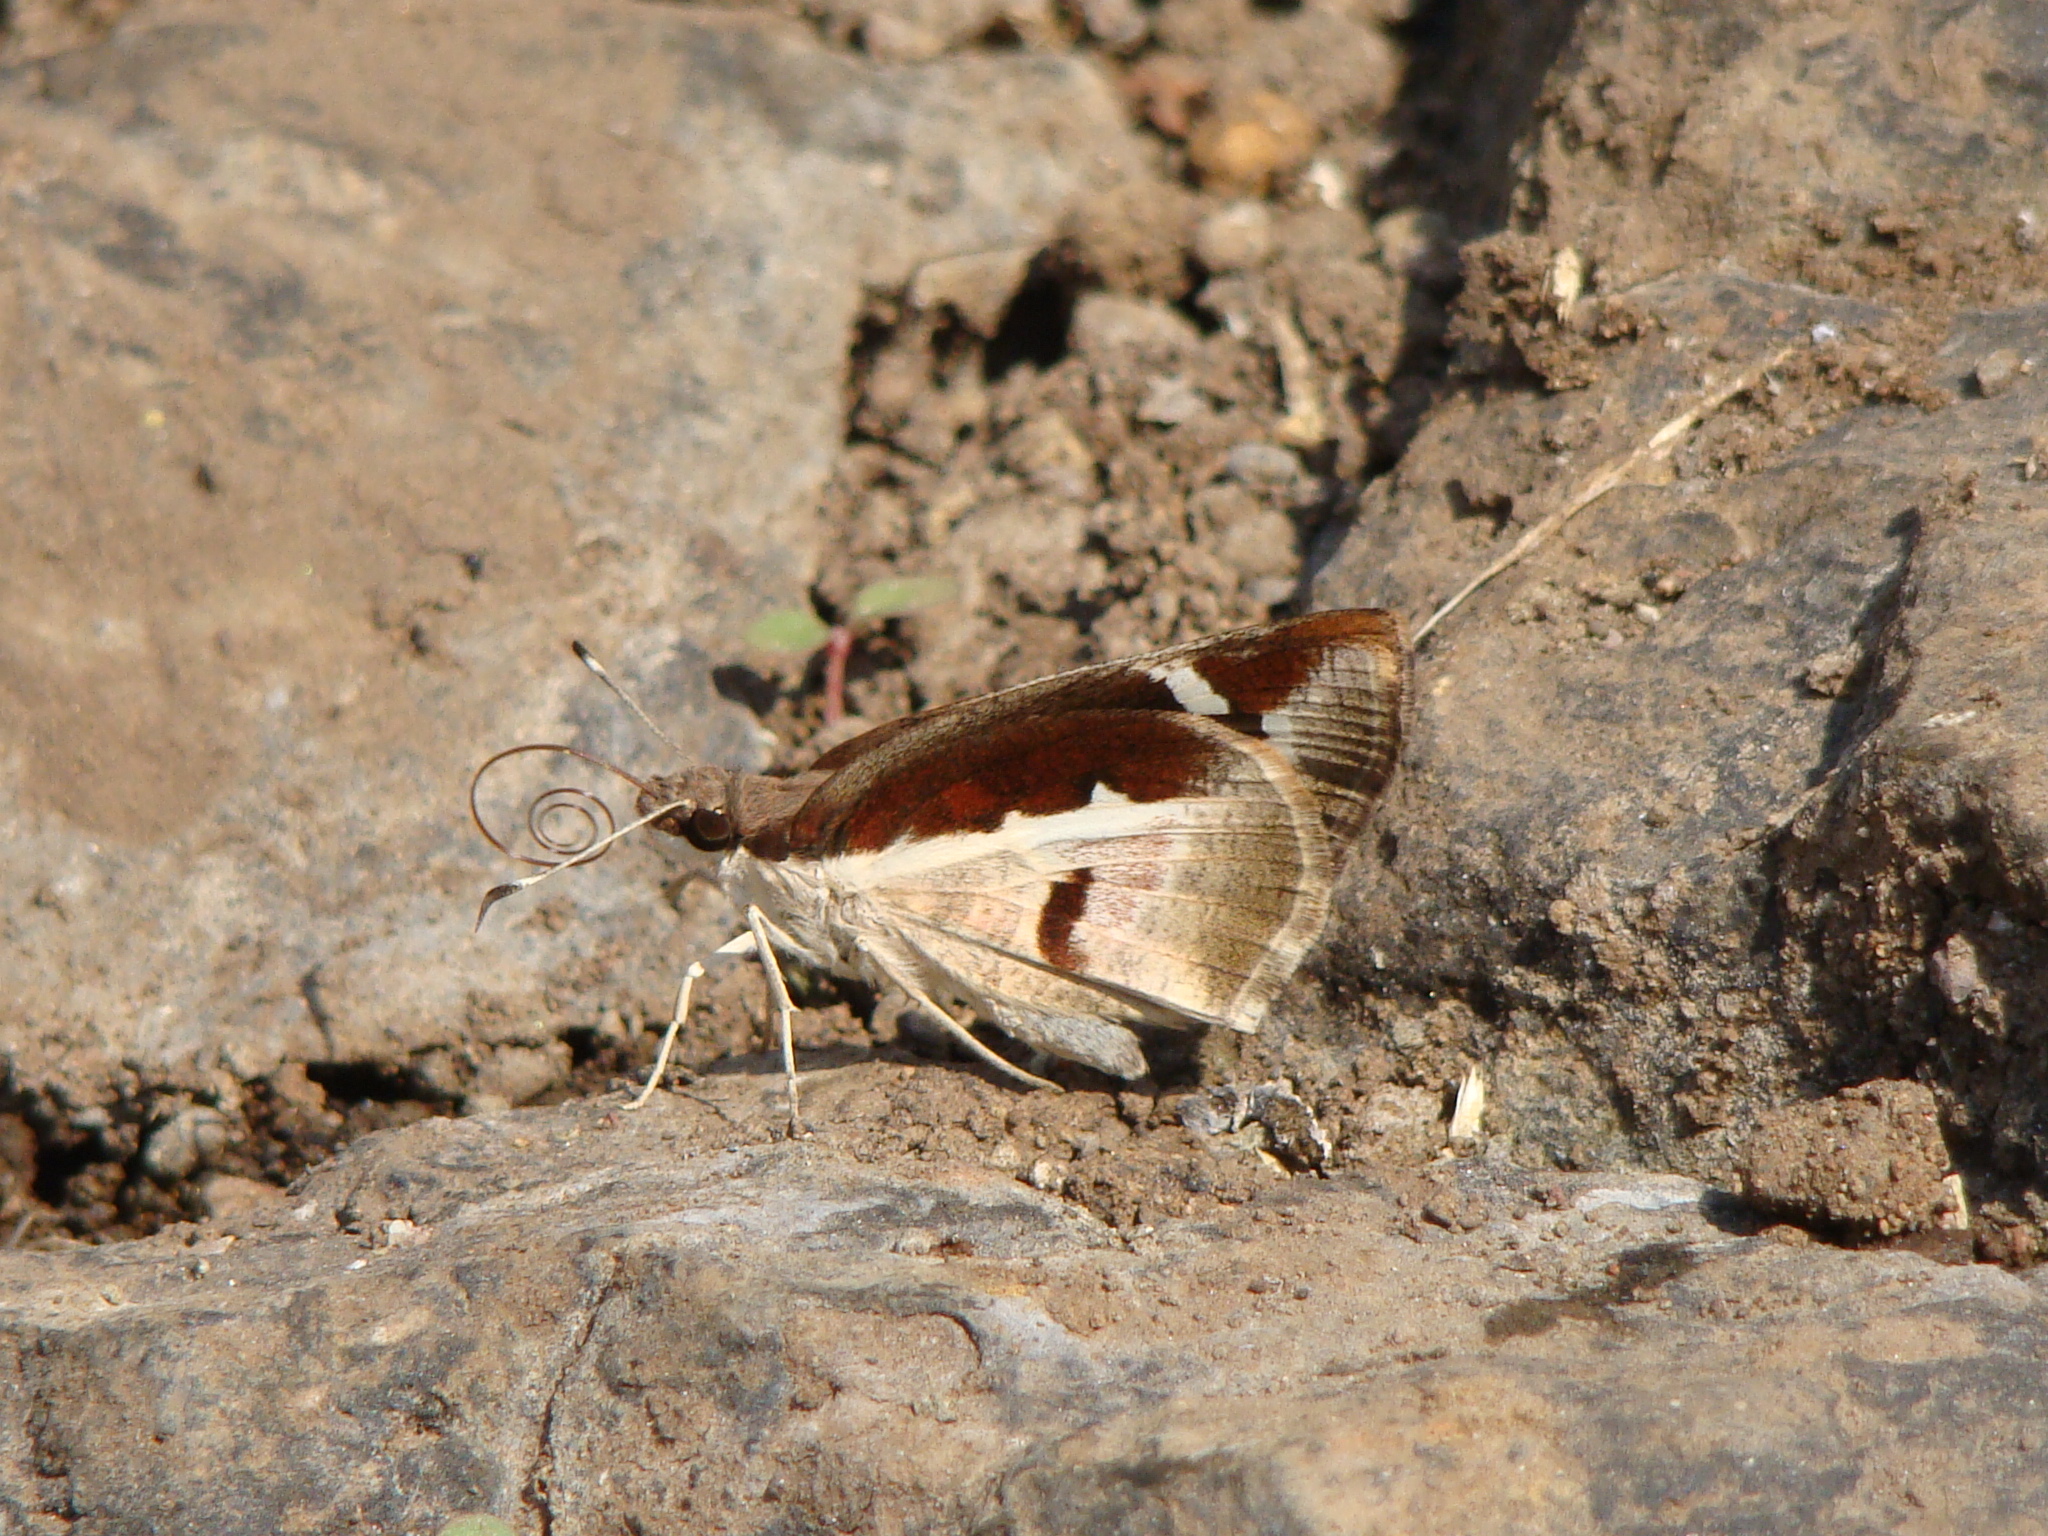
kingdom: Animalia
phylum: Arthropoda
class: Insecta
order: Lepidoptera
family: Hesperiidae
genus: Udaspes
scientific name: Udaspes folus
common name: Grass demon
